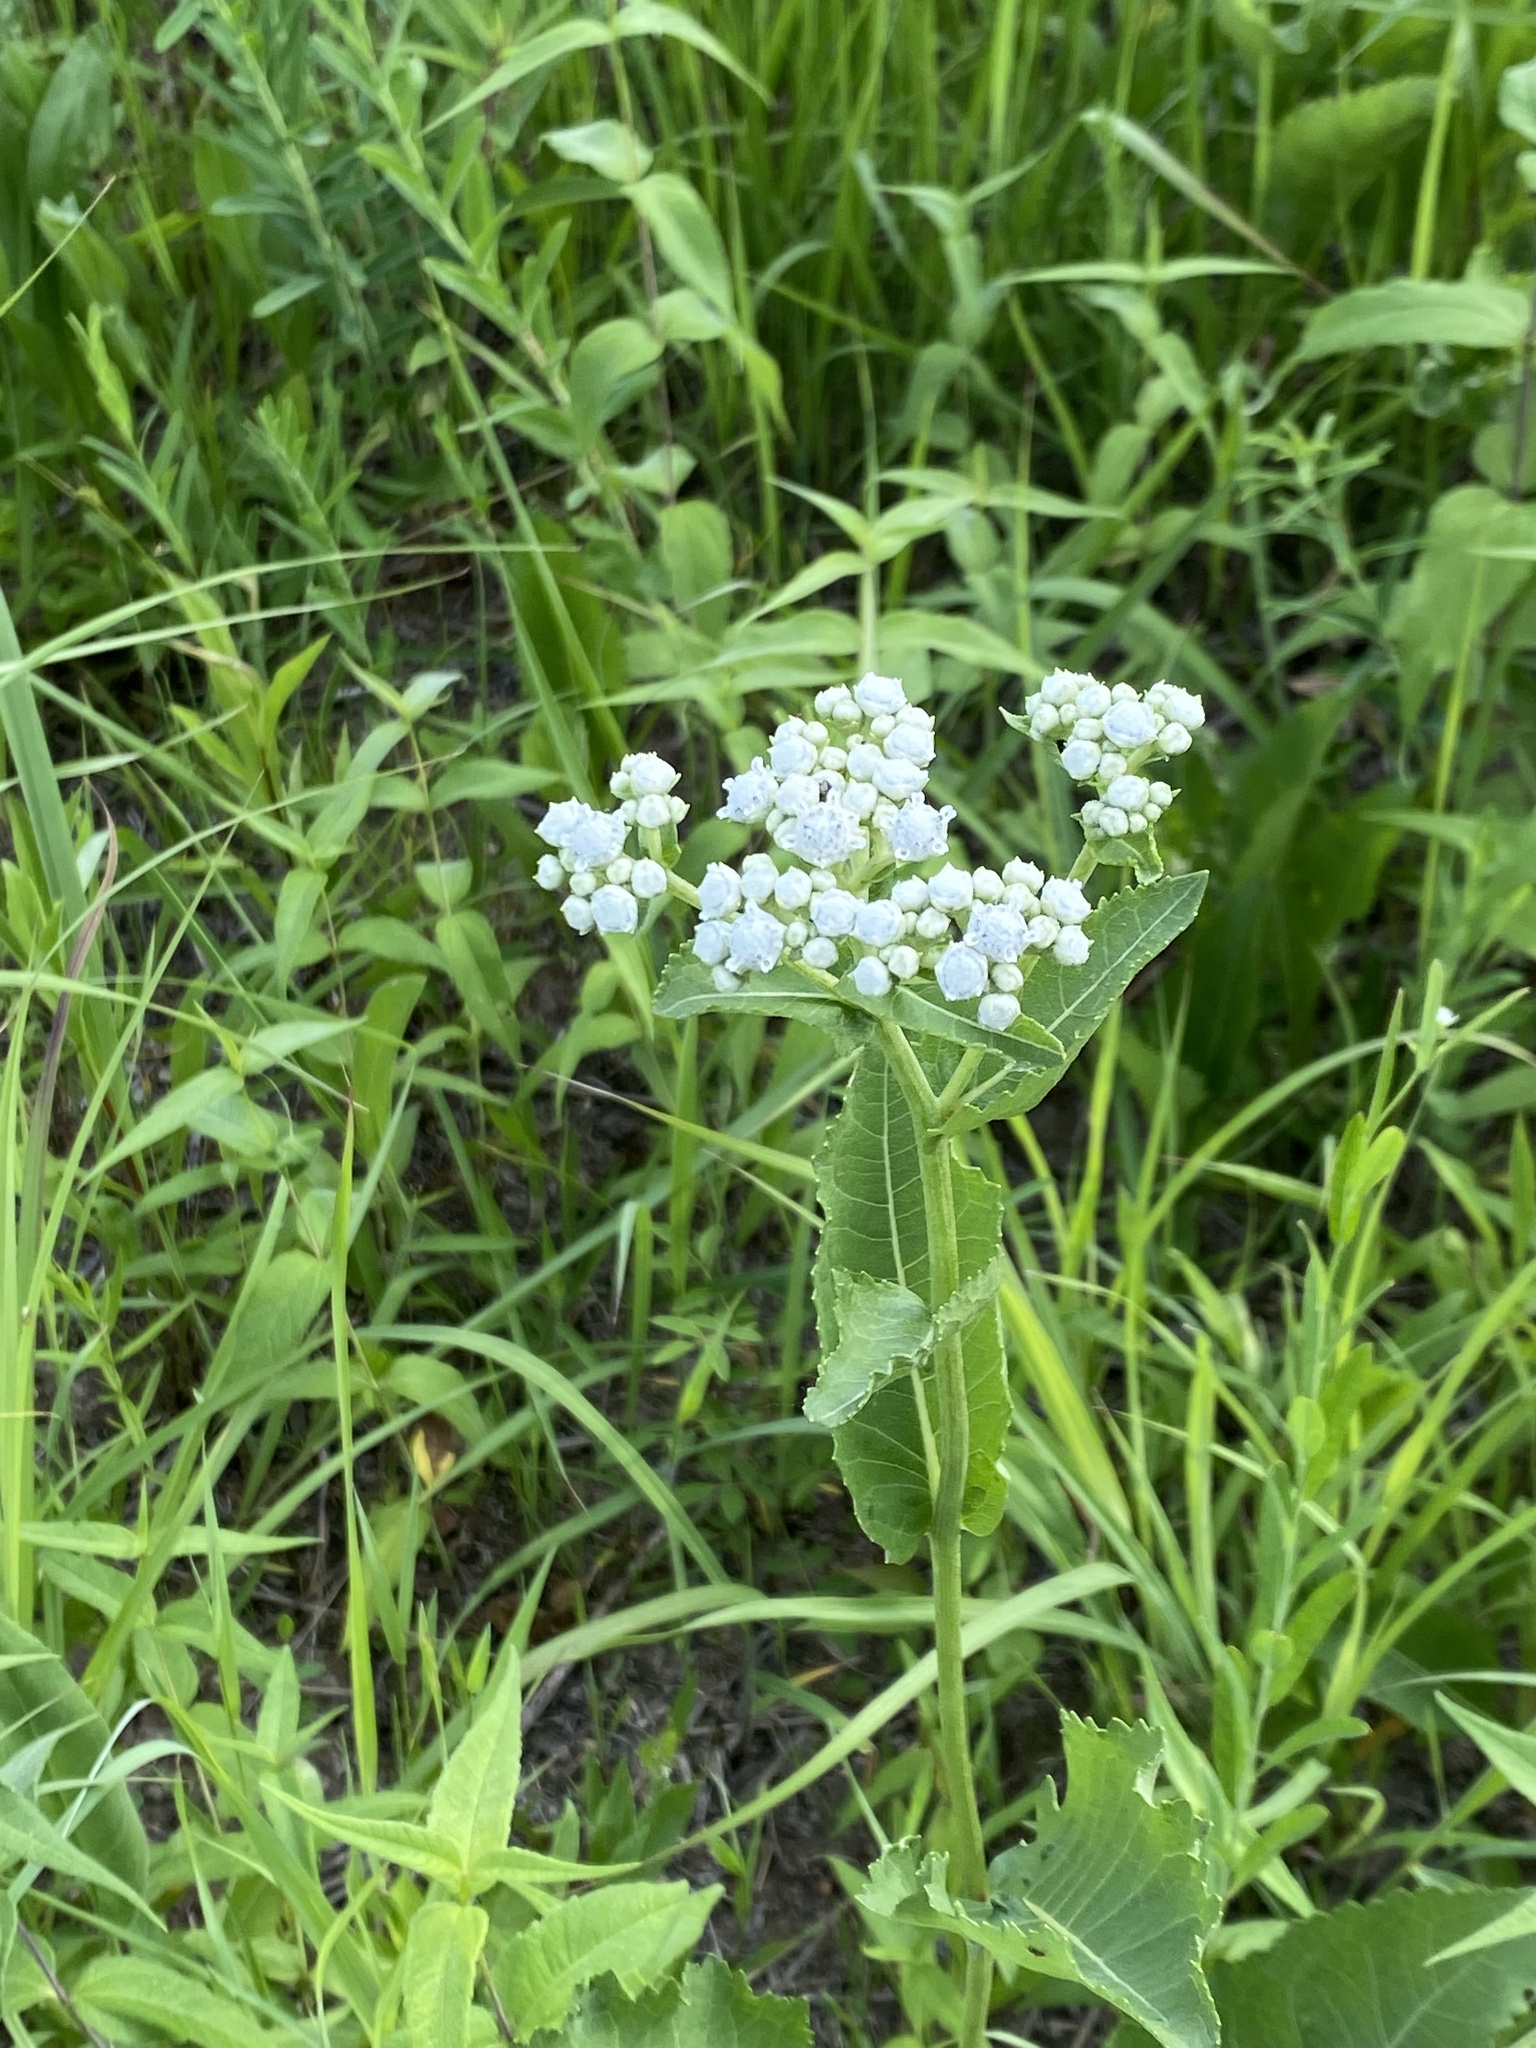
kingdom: Plantae
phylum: Tracheophyta
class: Magnoliopsida
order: Asterales
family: Asteraceae
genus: Parthenium
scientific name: Parthenium integrifolium
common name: American feverfew
